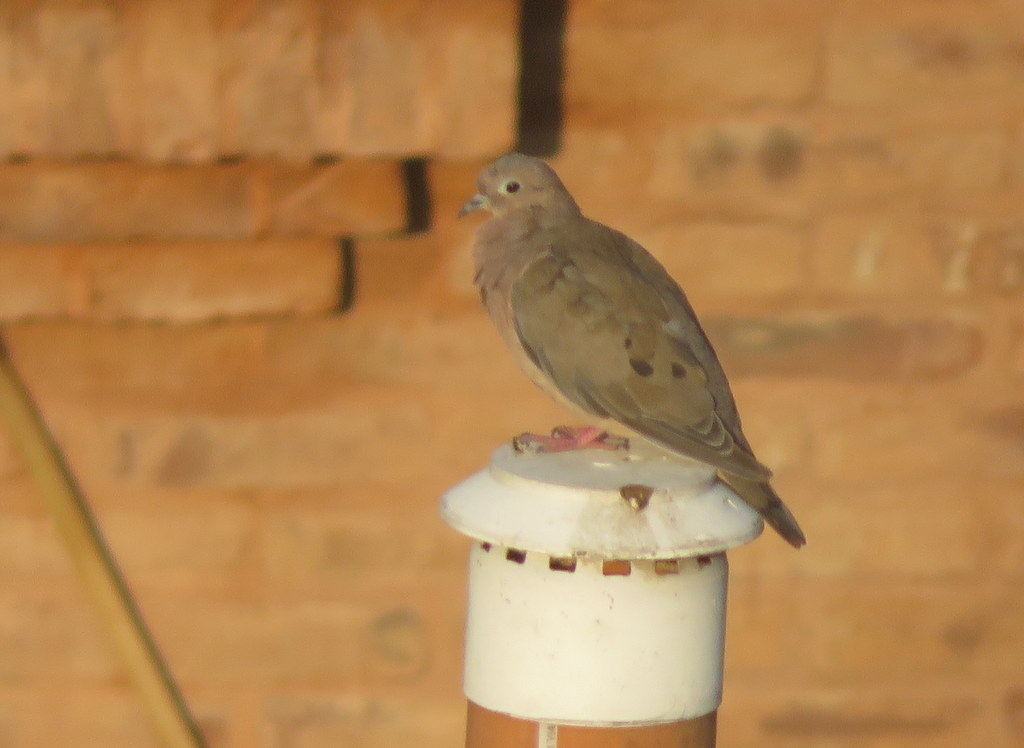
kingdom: Animalia
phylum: Chordata
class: Aves
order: Columbiformes
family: Columbidae
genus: Zenaida
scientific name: Zenaida auriculata
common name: Eared dove
